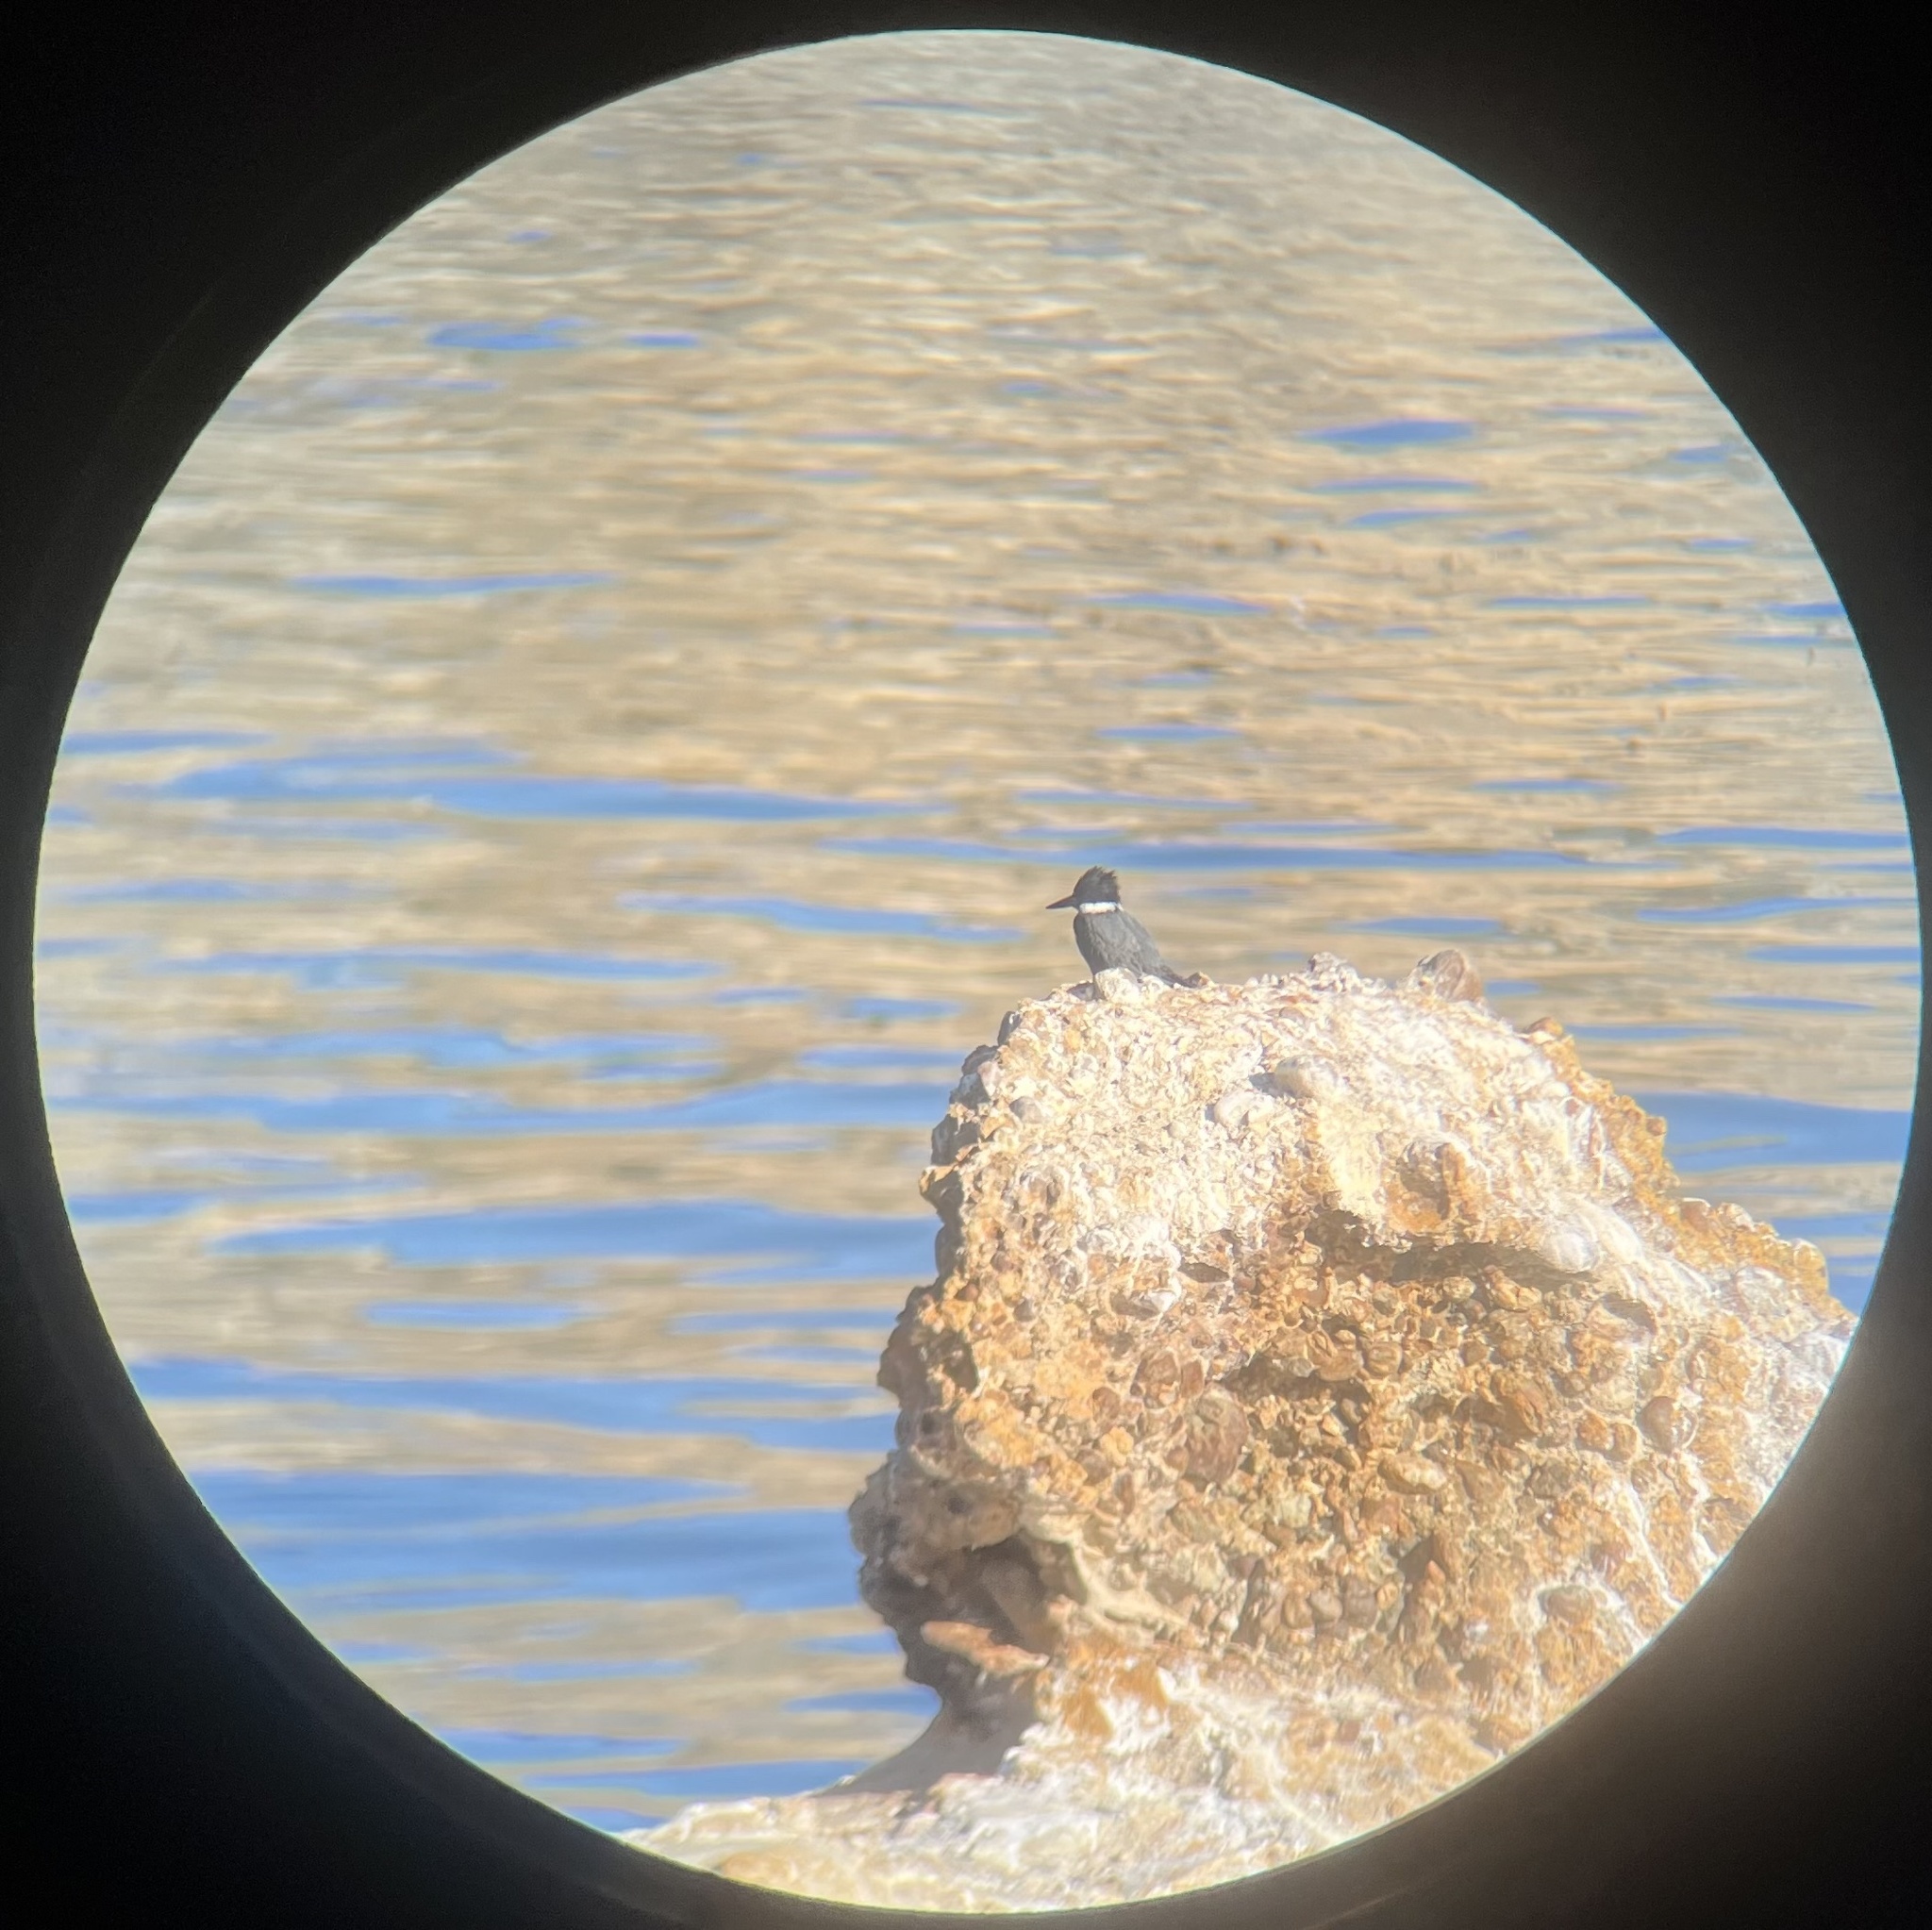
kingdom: Animalia
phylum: Chordata
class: Aves
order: Coraciiformes
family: Alcedinidae
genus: Megaceryle
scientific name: Megaceryle alcyon
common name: Belted kingfisher
